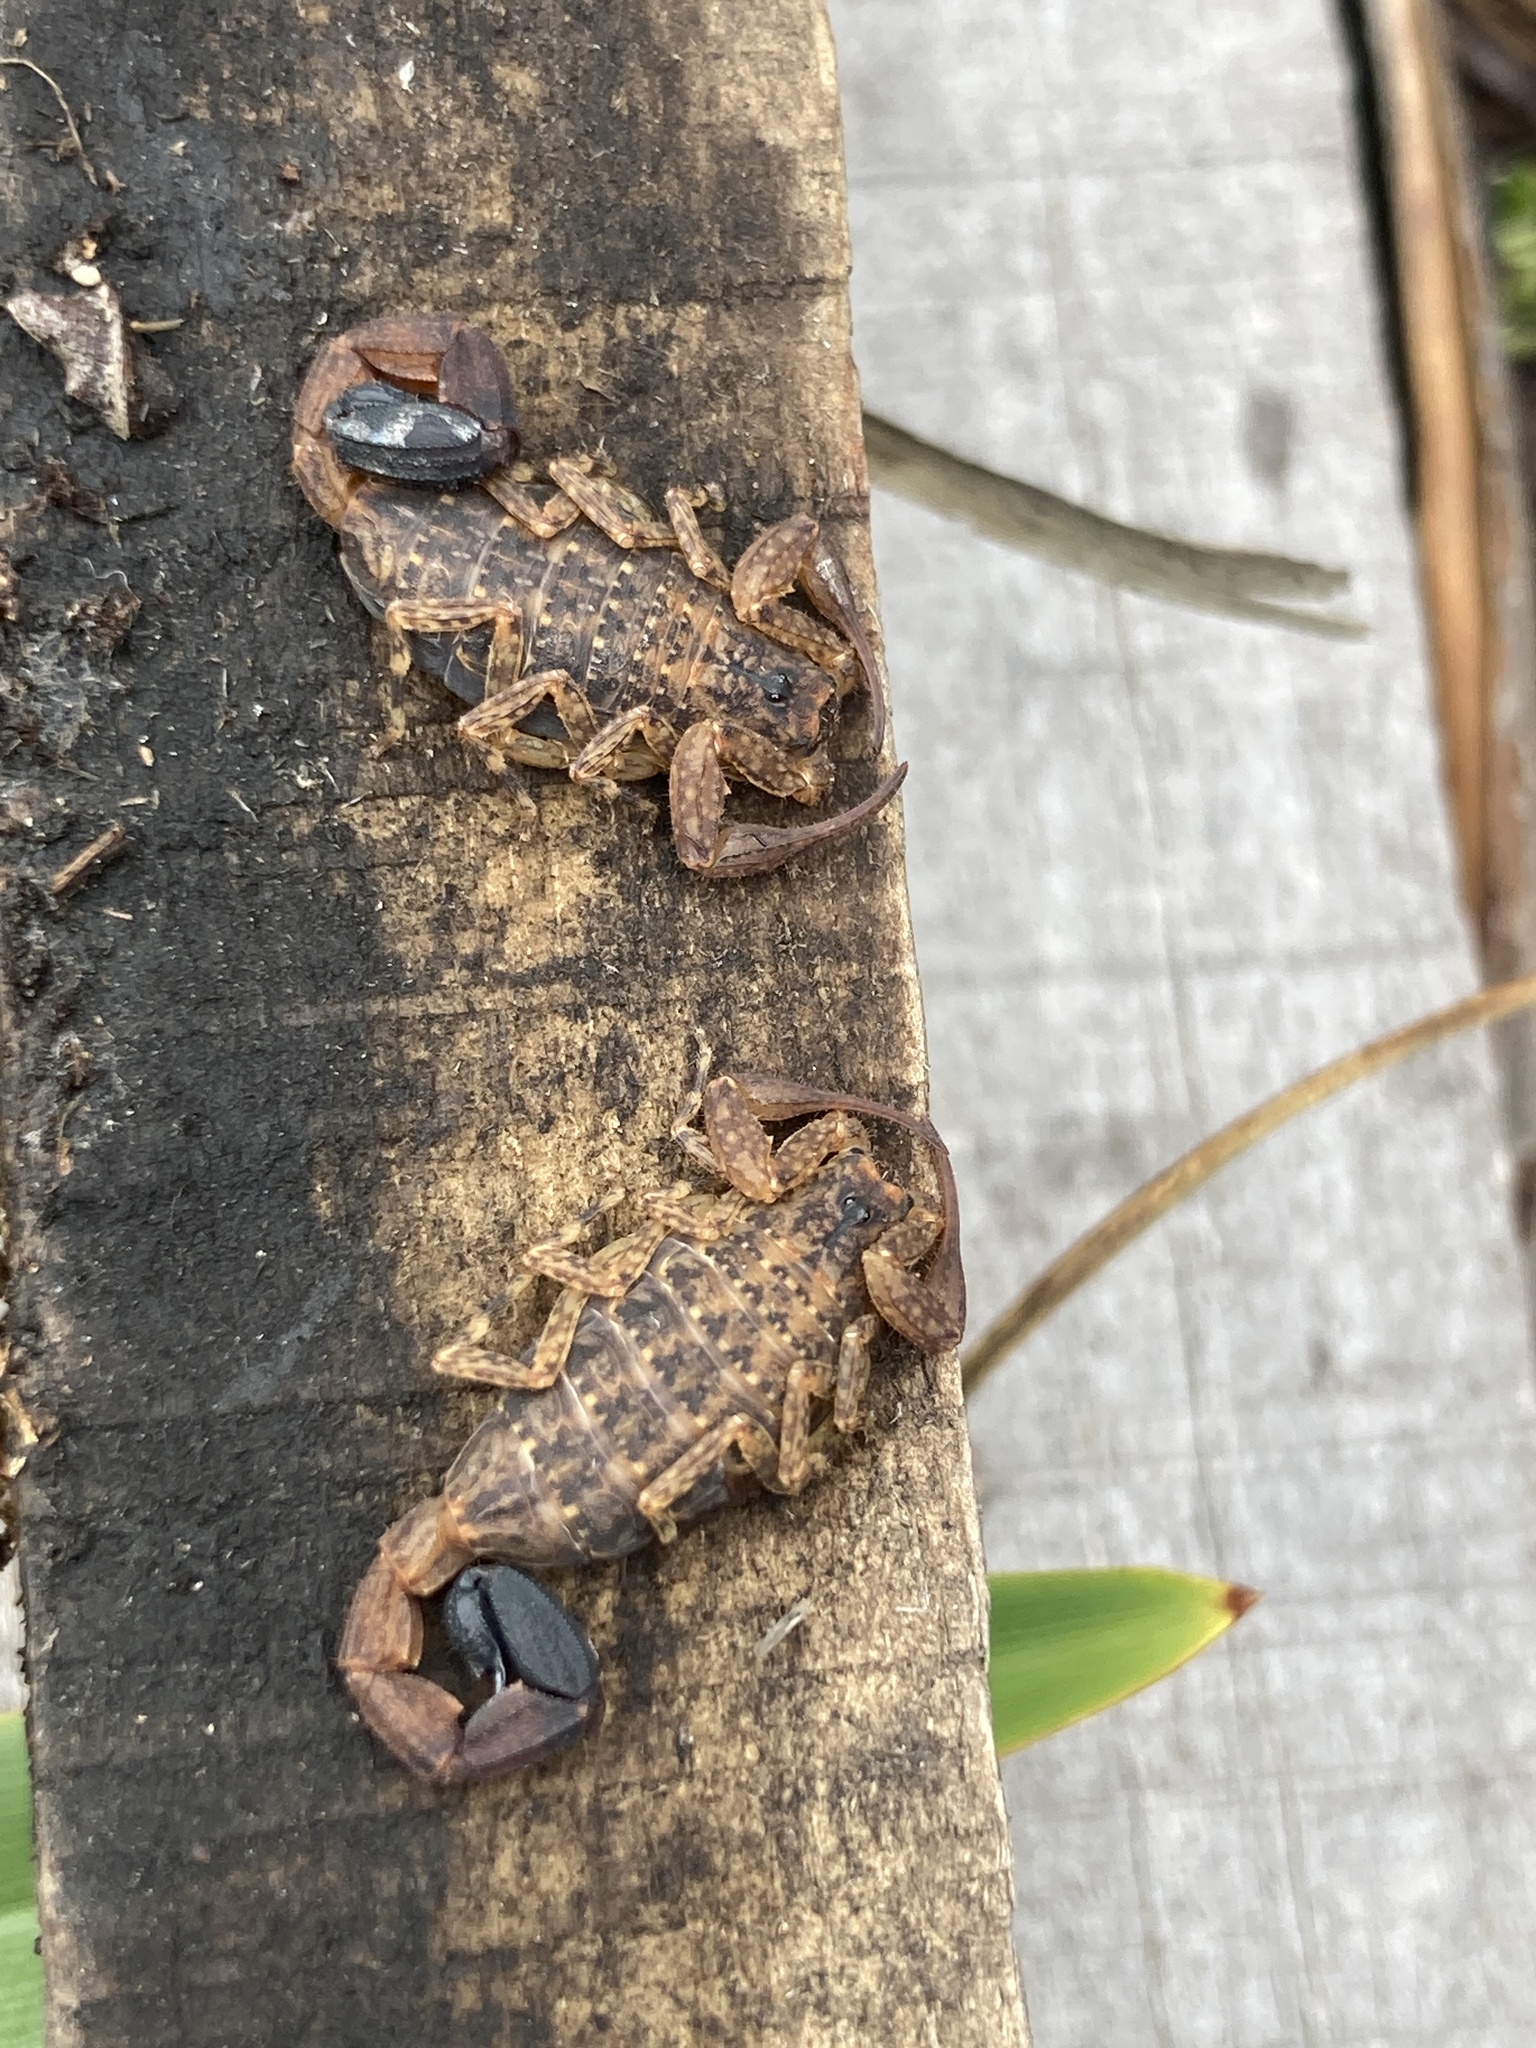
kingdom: Animalia
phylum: Arthropoda
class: Arachnida
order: Scorpiones
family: Buthidae
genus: Tityus
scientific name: Tityus columbianus
